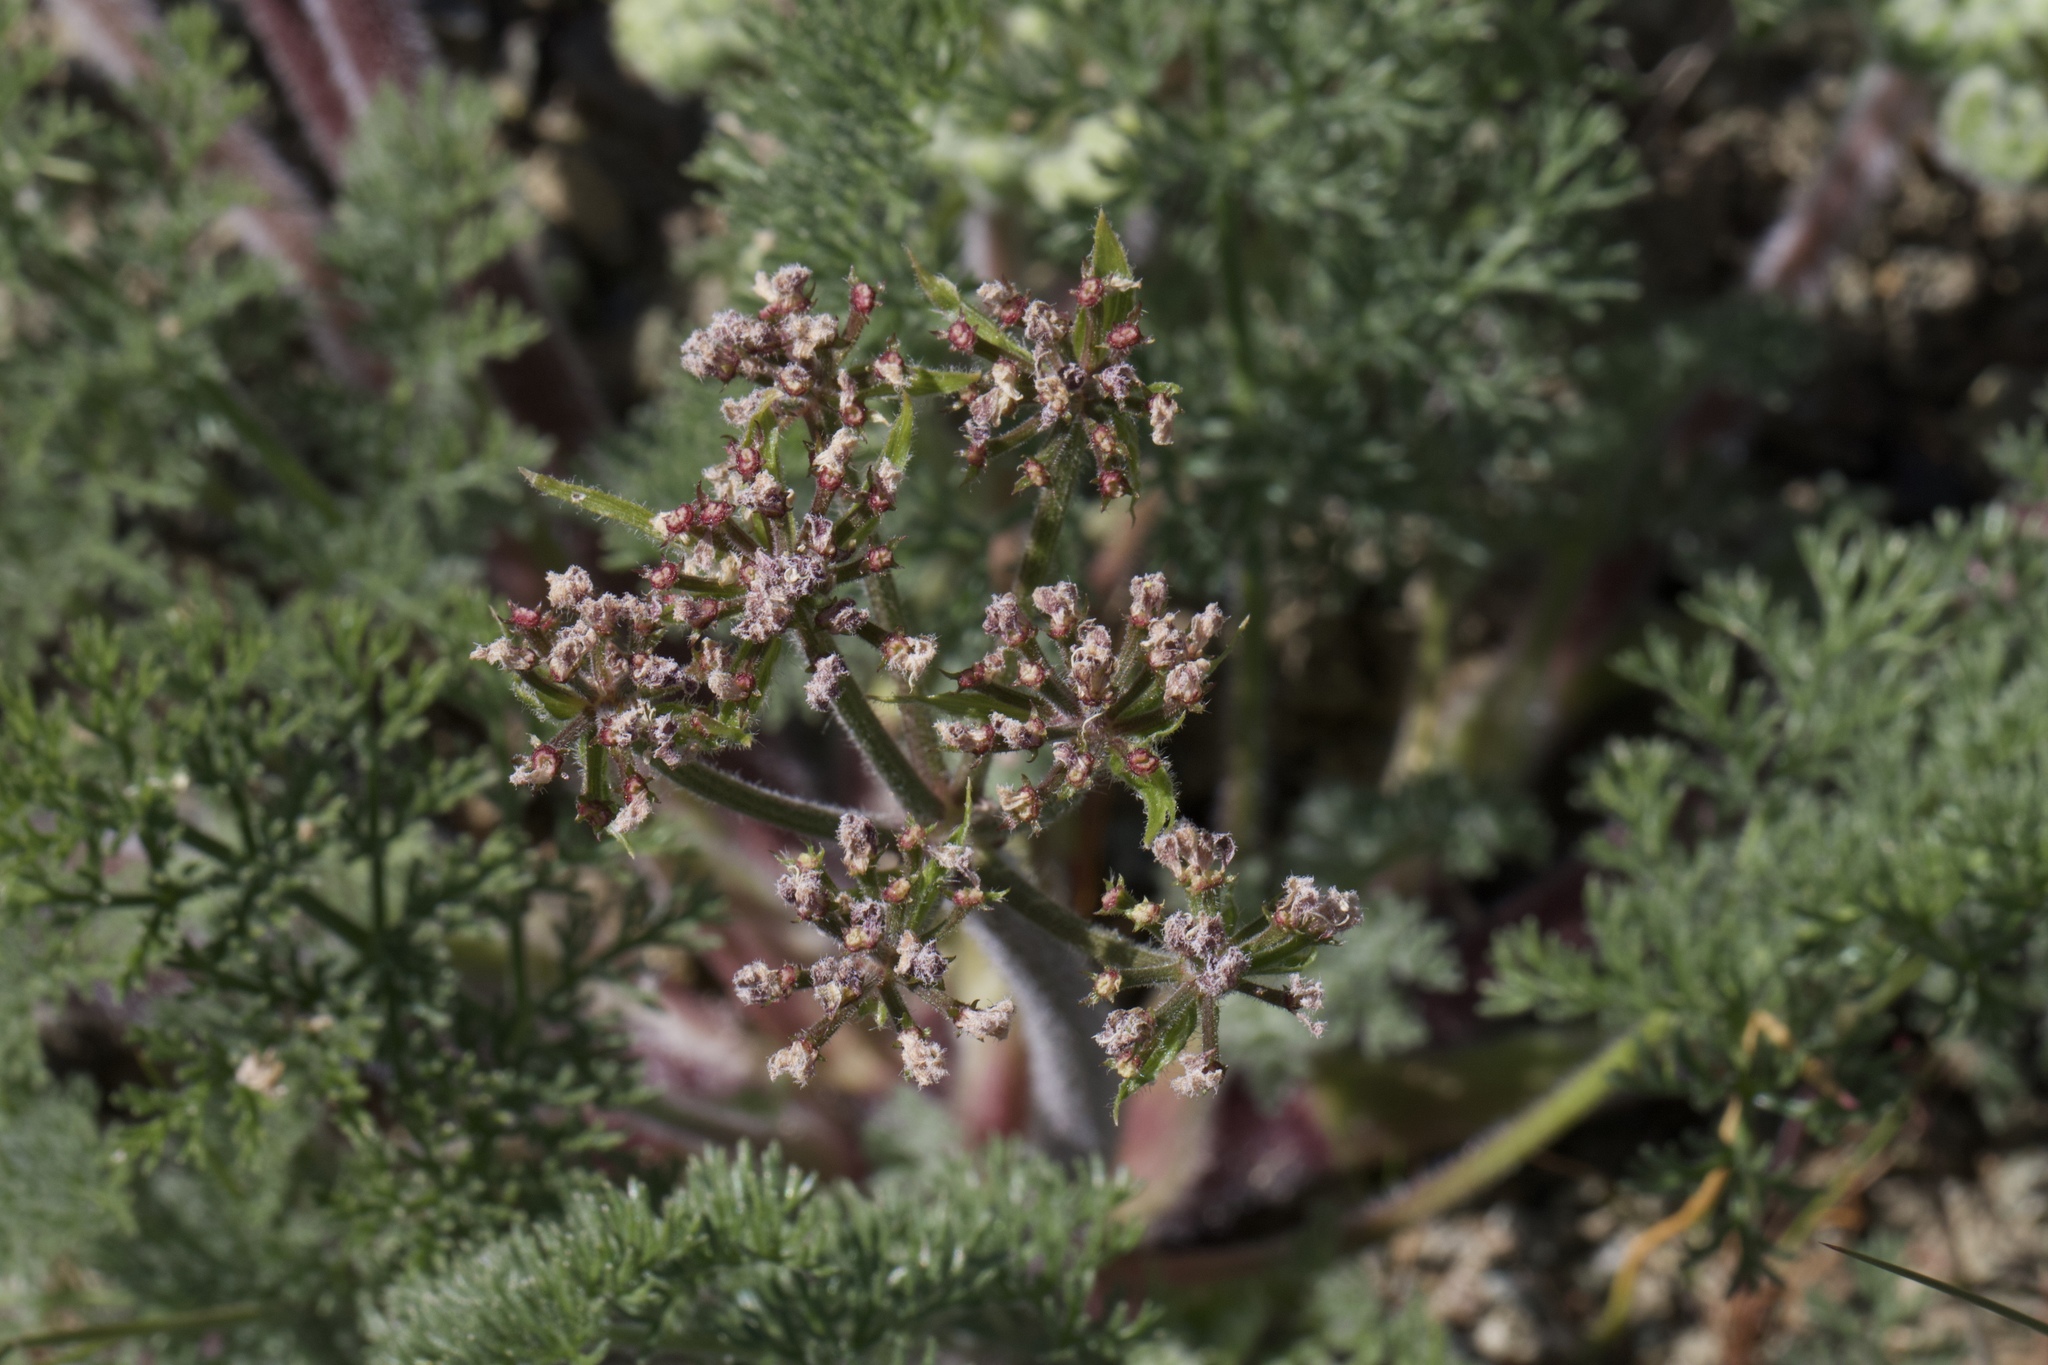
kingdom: Plantae
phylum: Tracheophyta
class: Magnoliopsida
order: Apiales
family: Apiaceae
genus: Lomatium
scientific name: Lomatium dasycarpum
